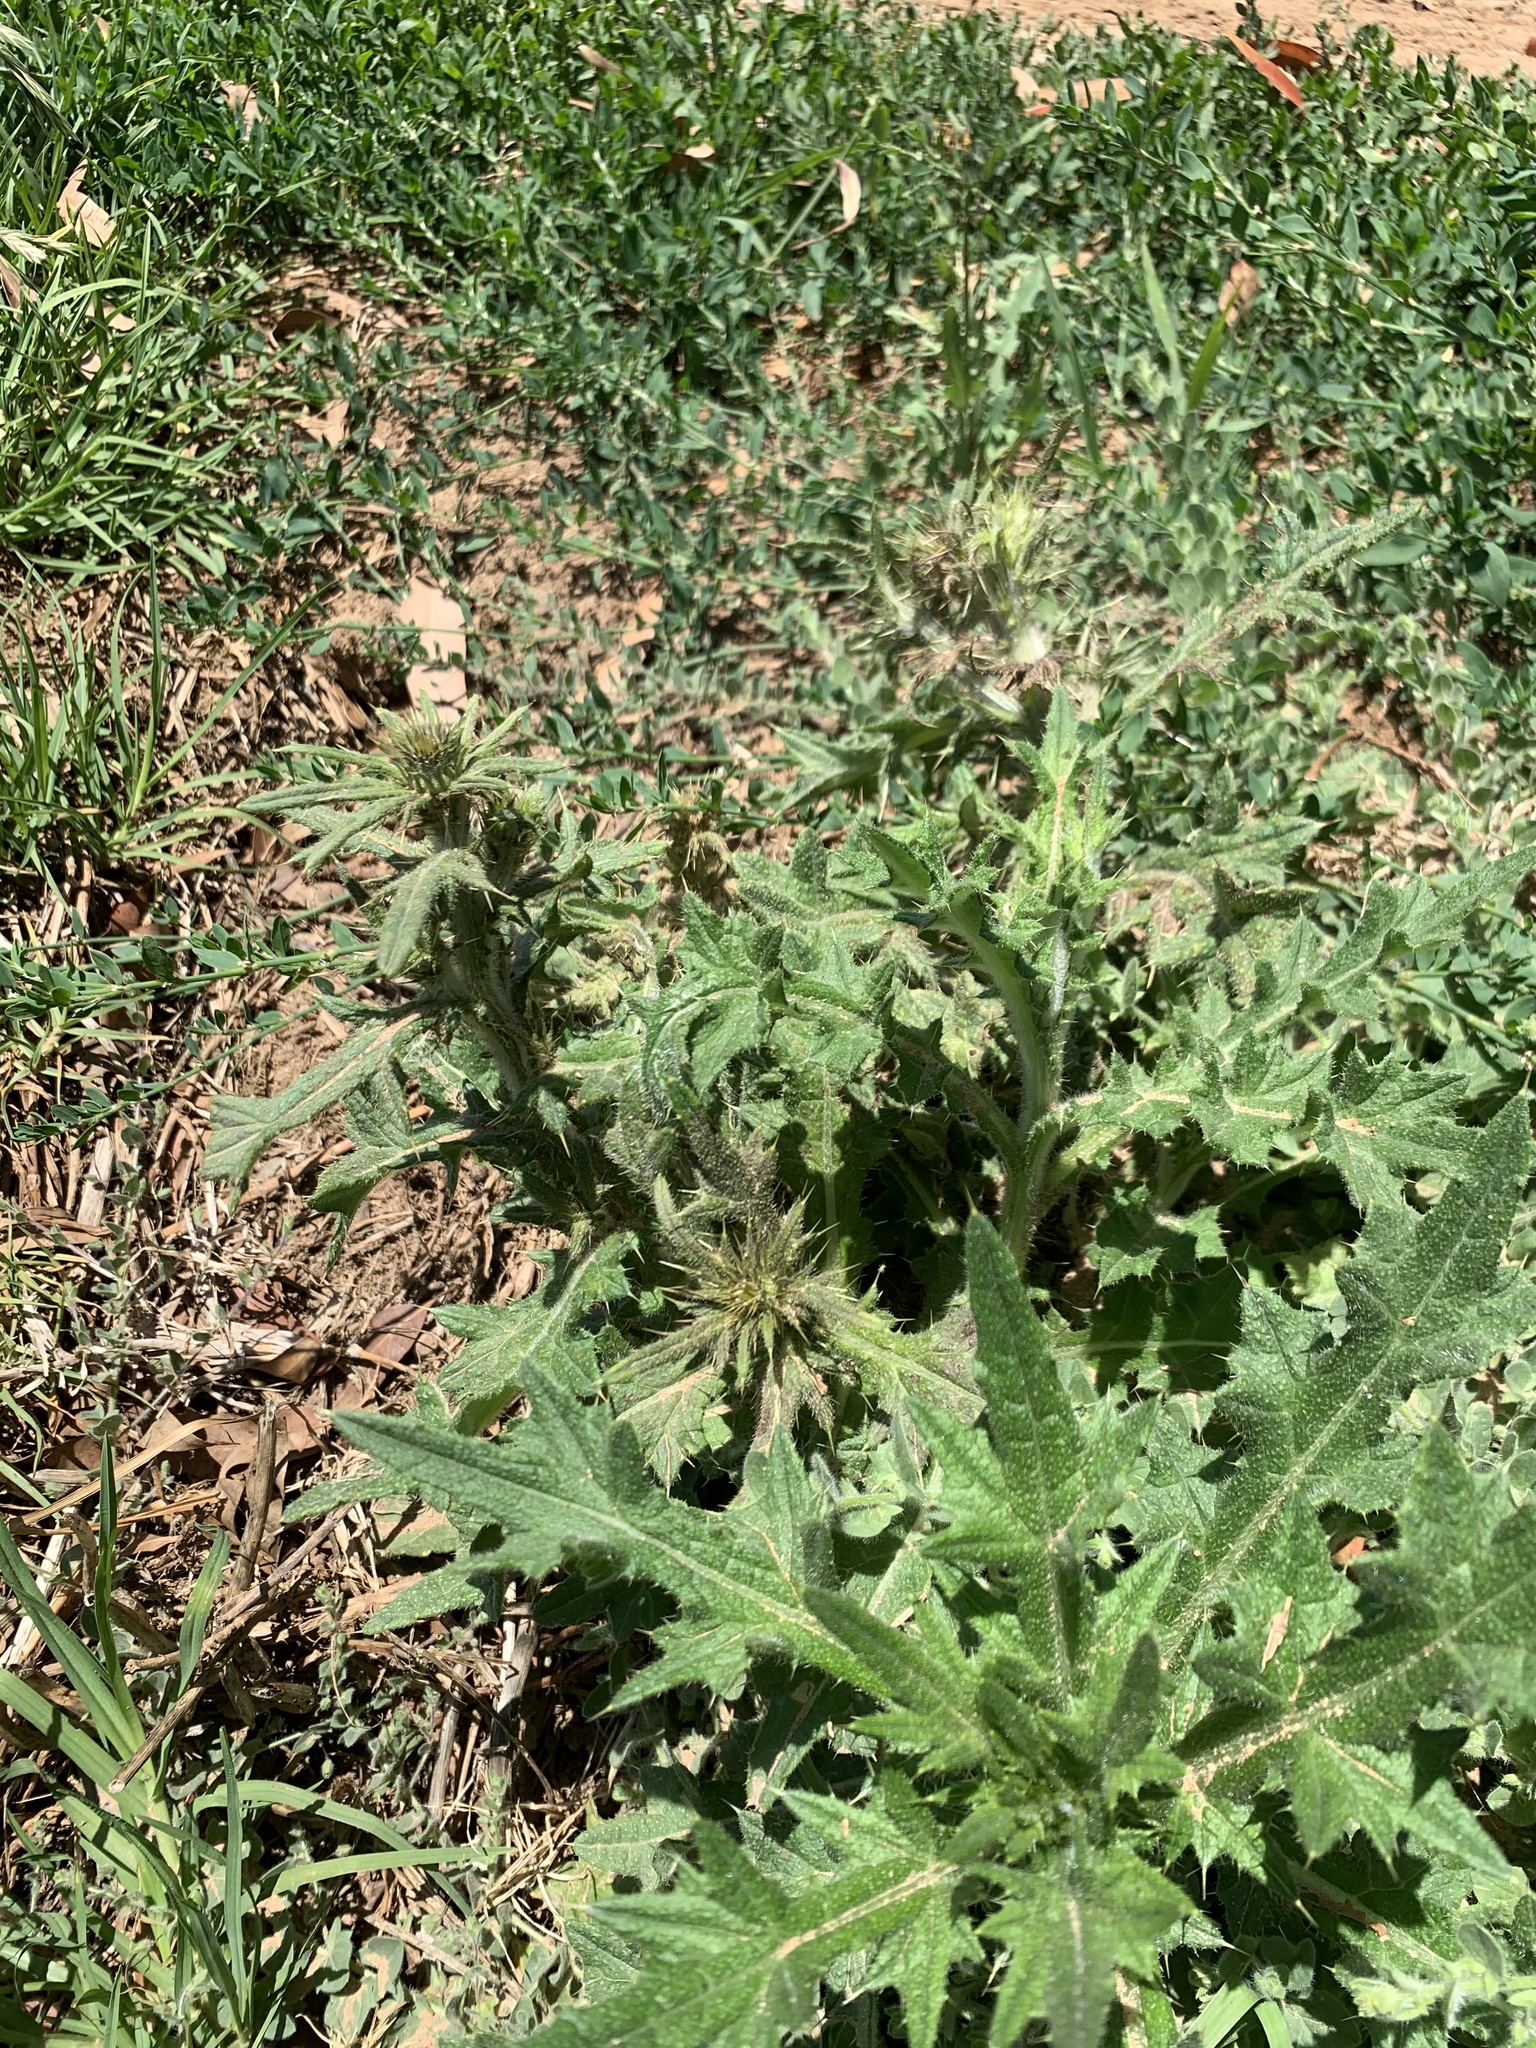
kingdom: Plantae
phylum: Tracheophyta
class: Magnoliopsida
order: Asterales
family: Asteraceae
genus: Cirsium
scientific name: Cirsium vulgare
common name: Bull thistle
